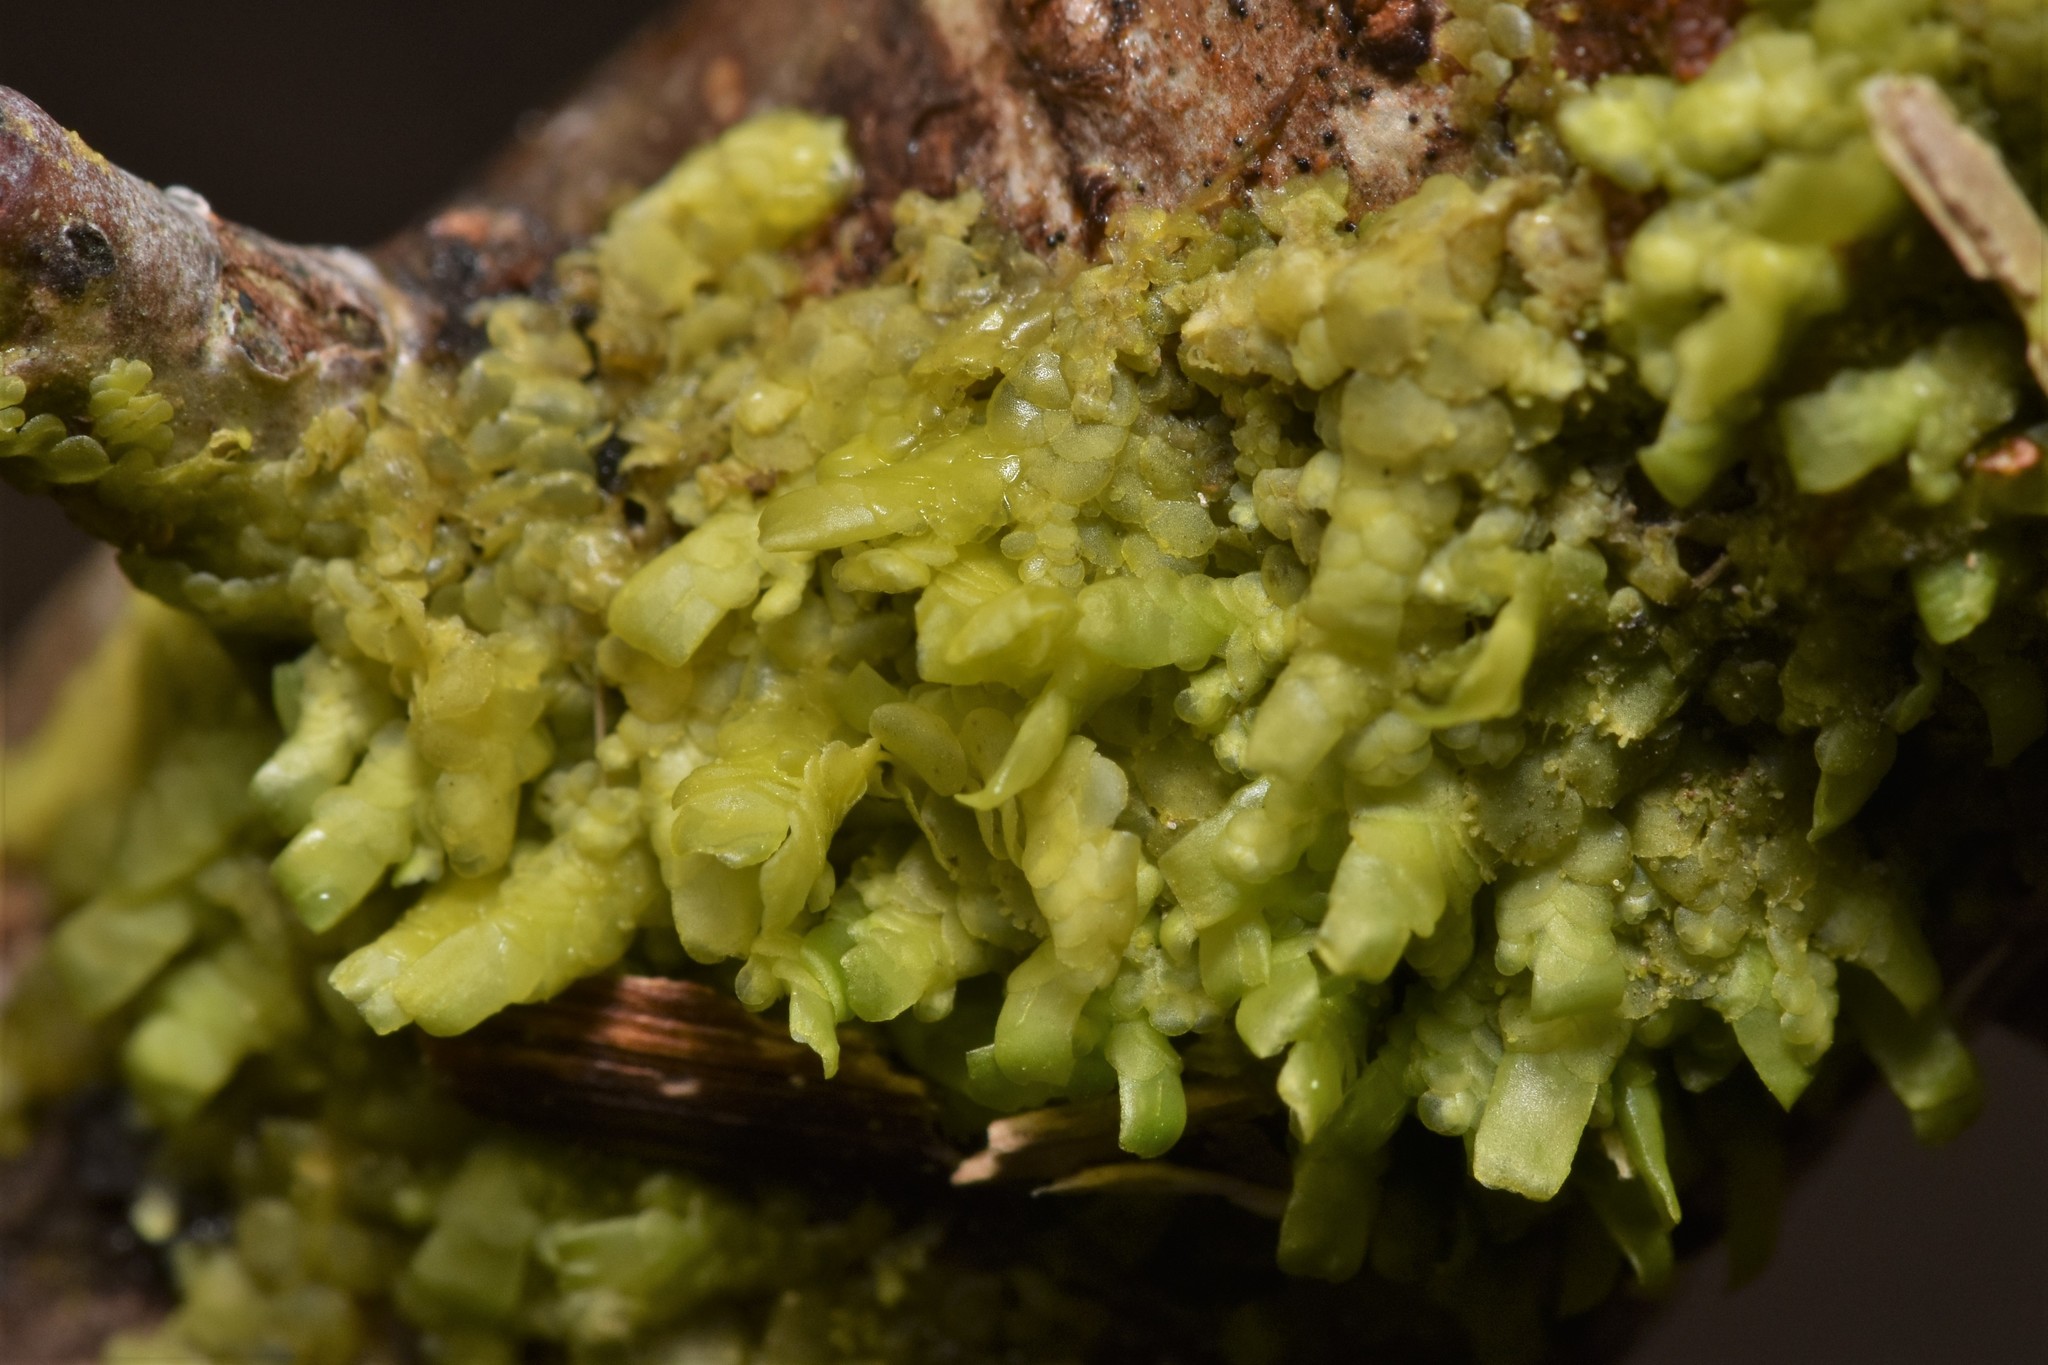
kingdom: Plantae
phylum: Marchantiophyta
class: Jungermanniopsida
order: Porellales
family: Radulaceae
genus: Radula
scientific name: Radula complanata
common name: Flat-leaved scalewort
